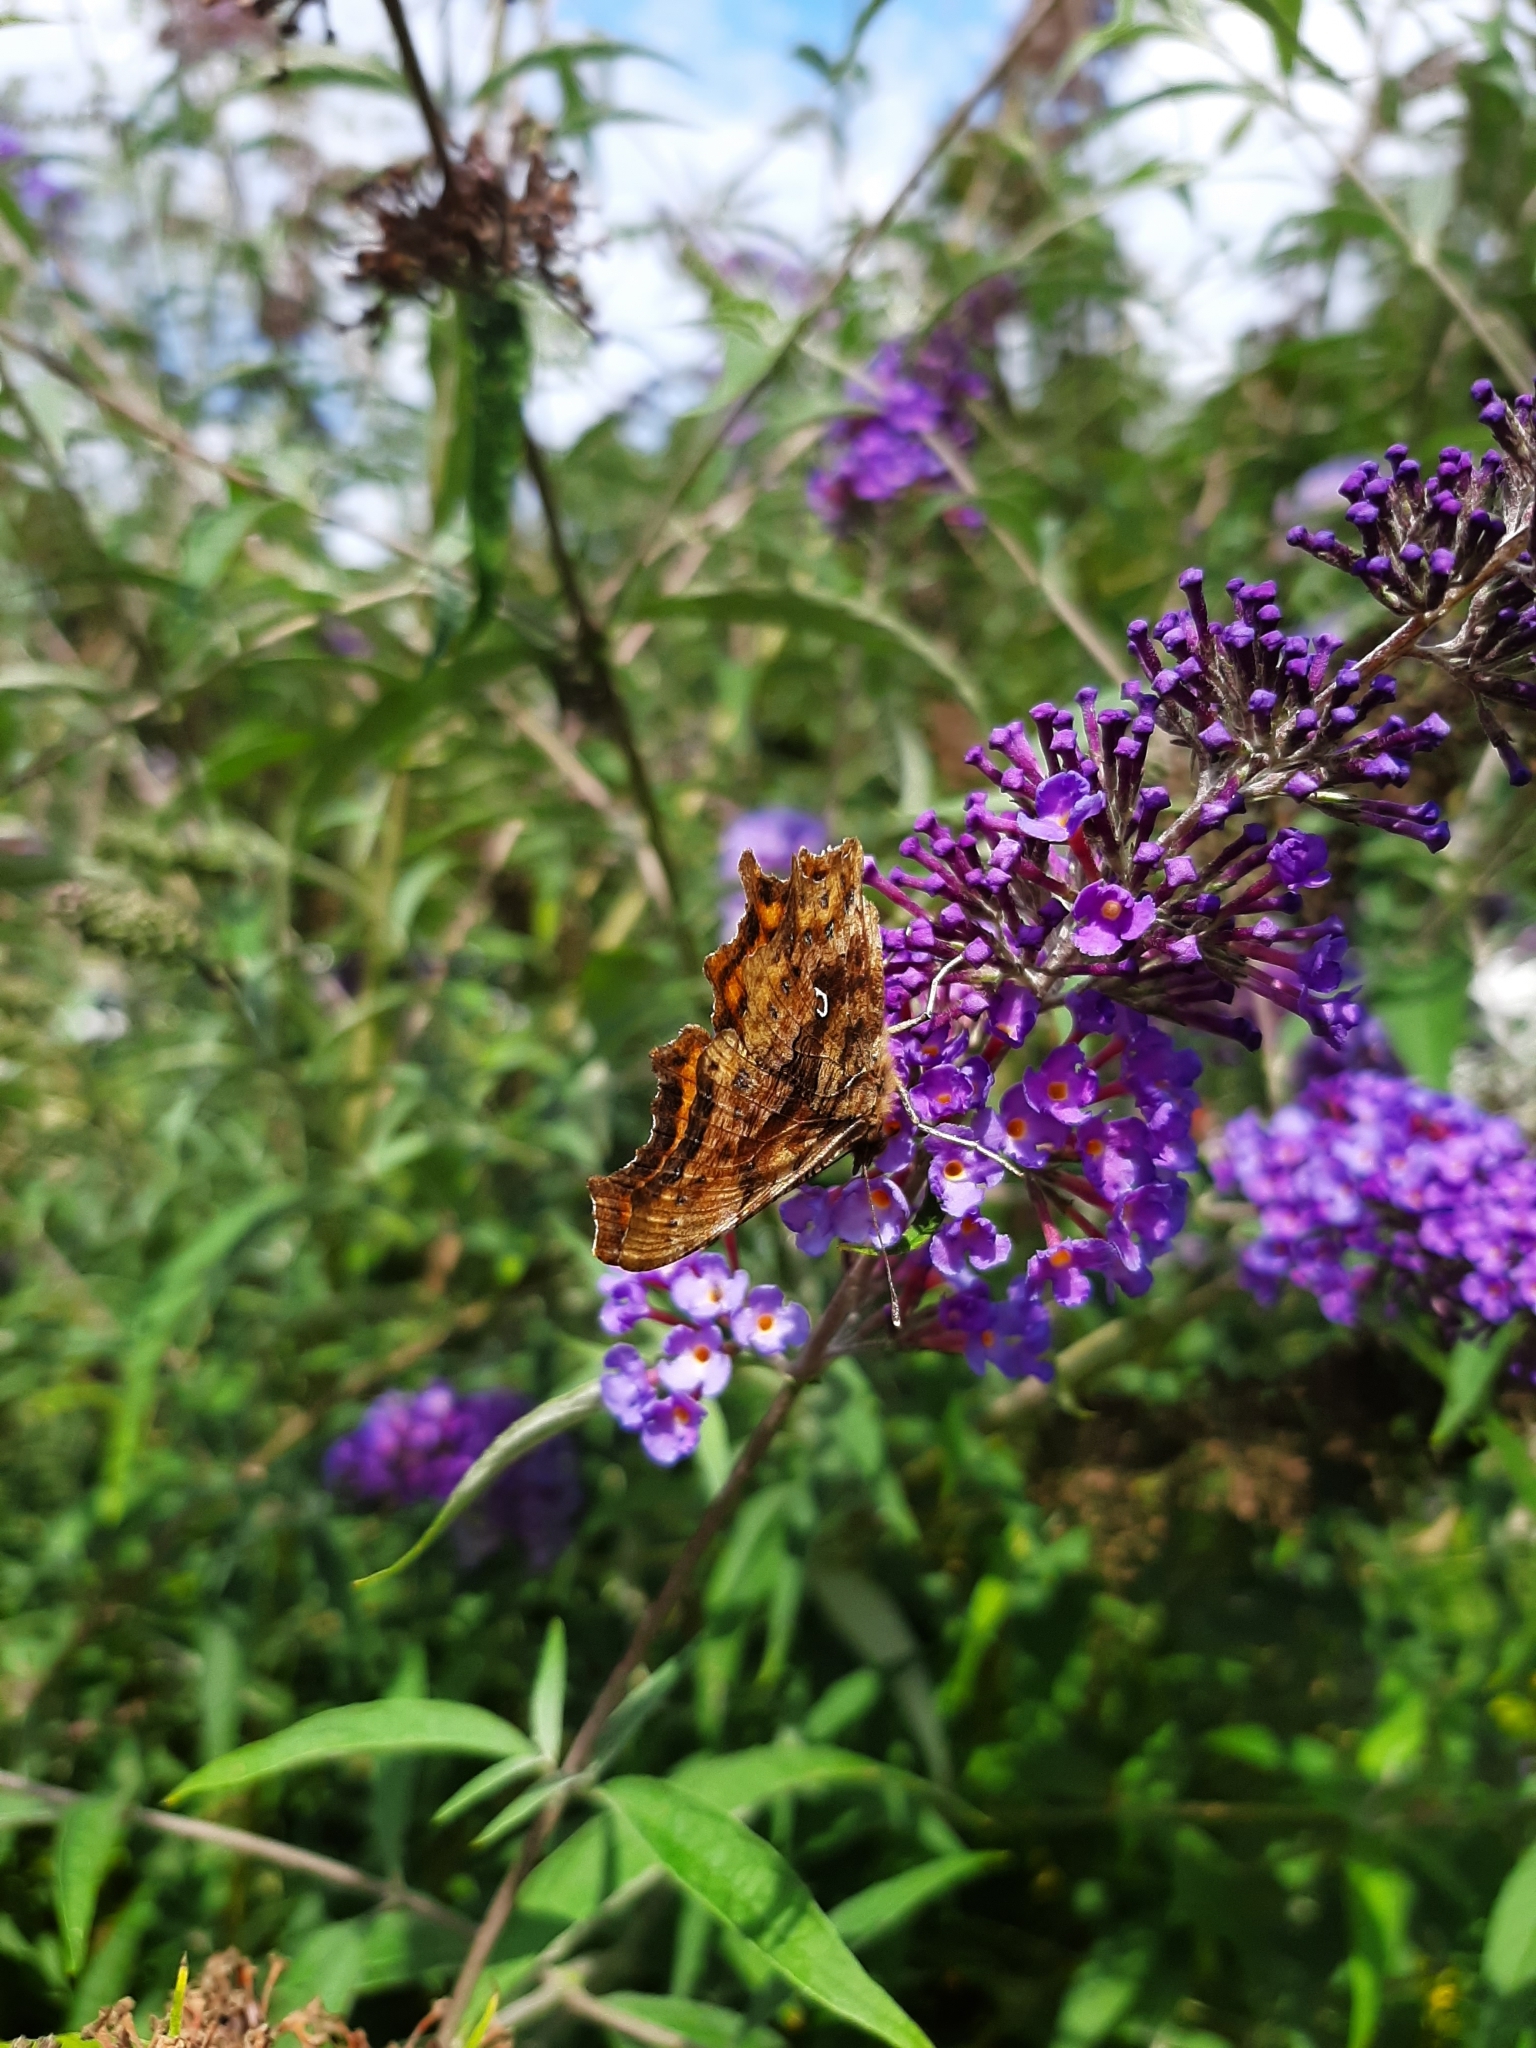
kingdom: Animalia
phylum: Arthropoda
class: Insecta
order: Lepidoptera
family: Nymphalidae
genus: Polygonia
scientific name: Polygonia c-album
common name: Comma
